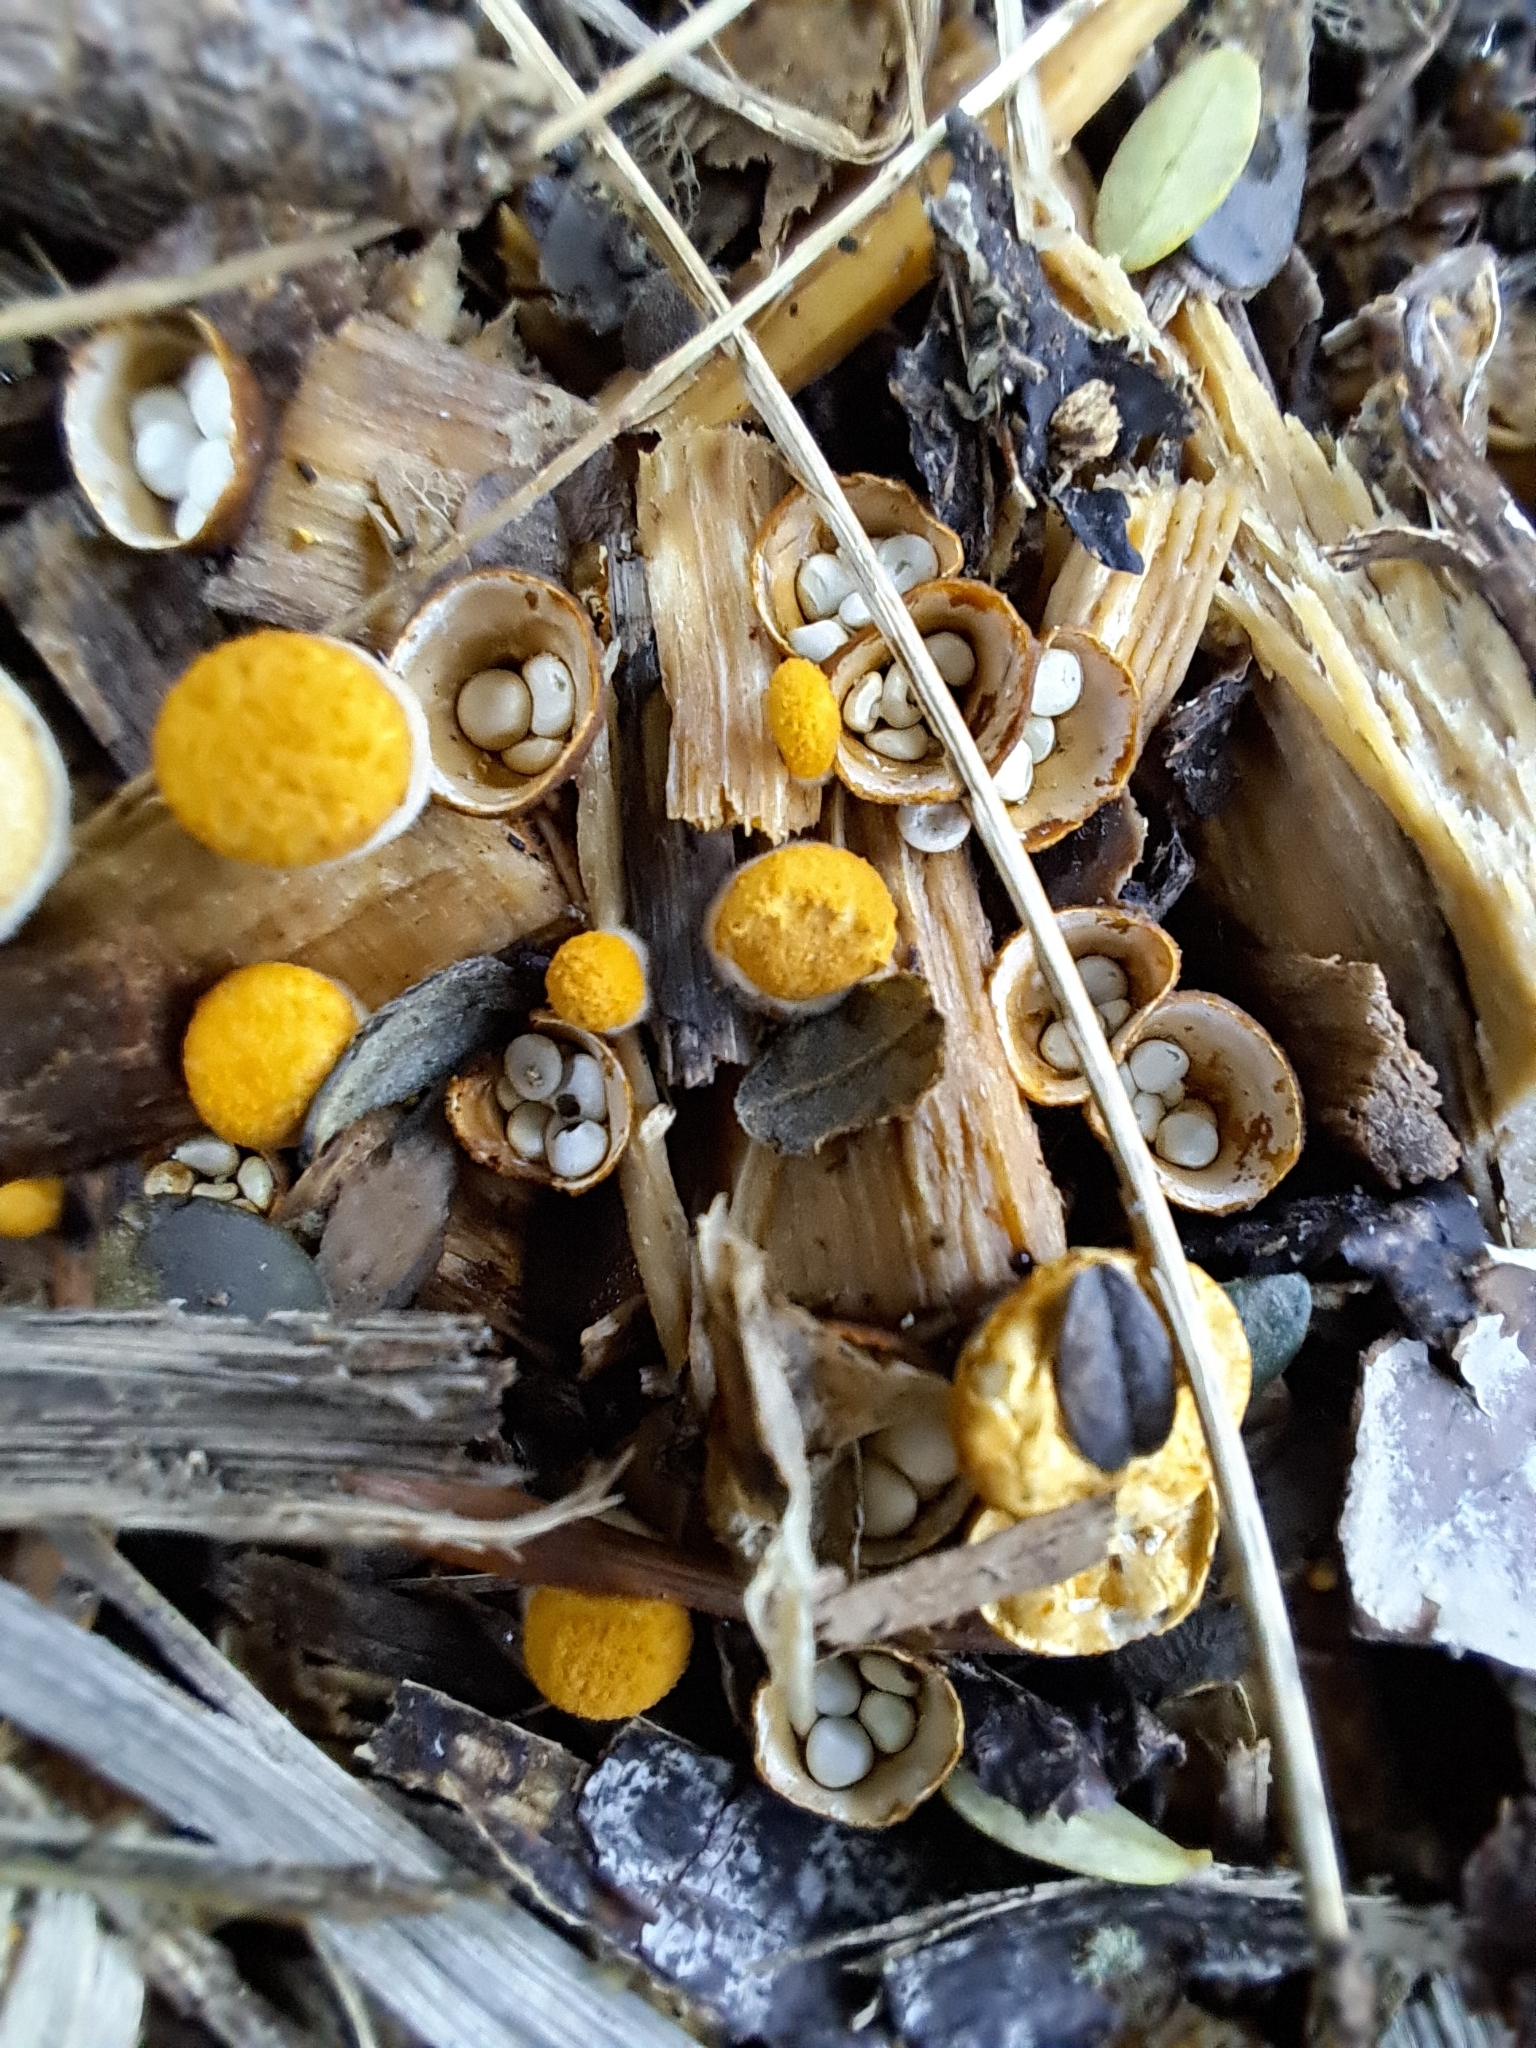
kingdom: Fungi
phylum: Basidiomycota
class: Agaricomycetes
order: Agaricales
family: Nidulariaceae
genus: Crucibulum
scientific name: Crucibulum simile
